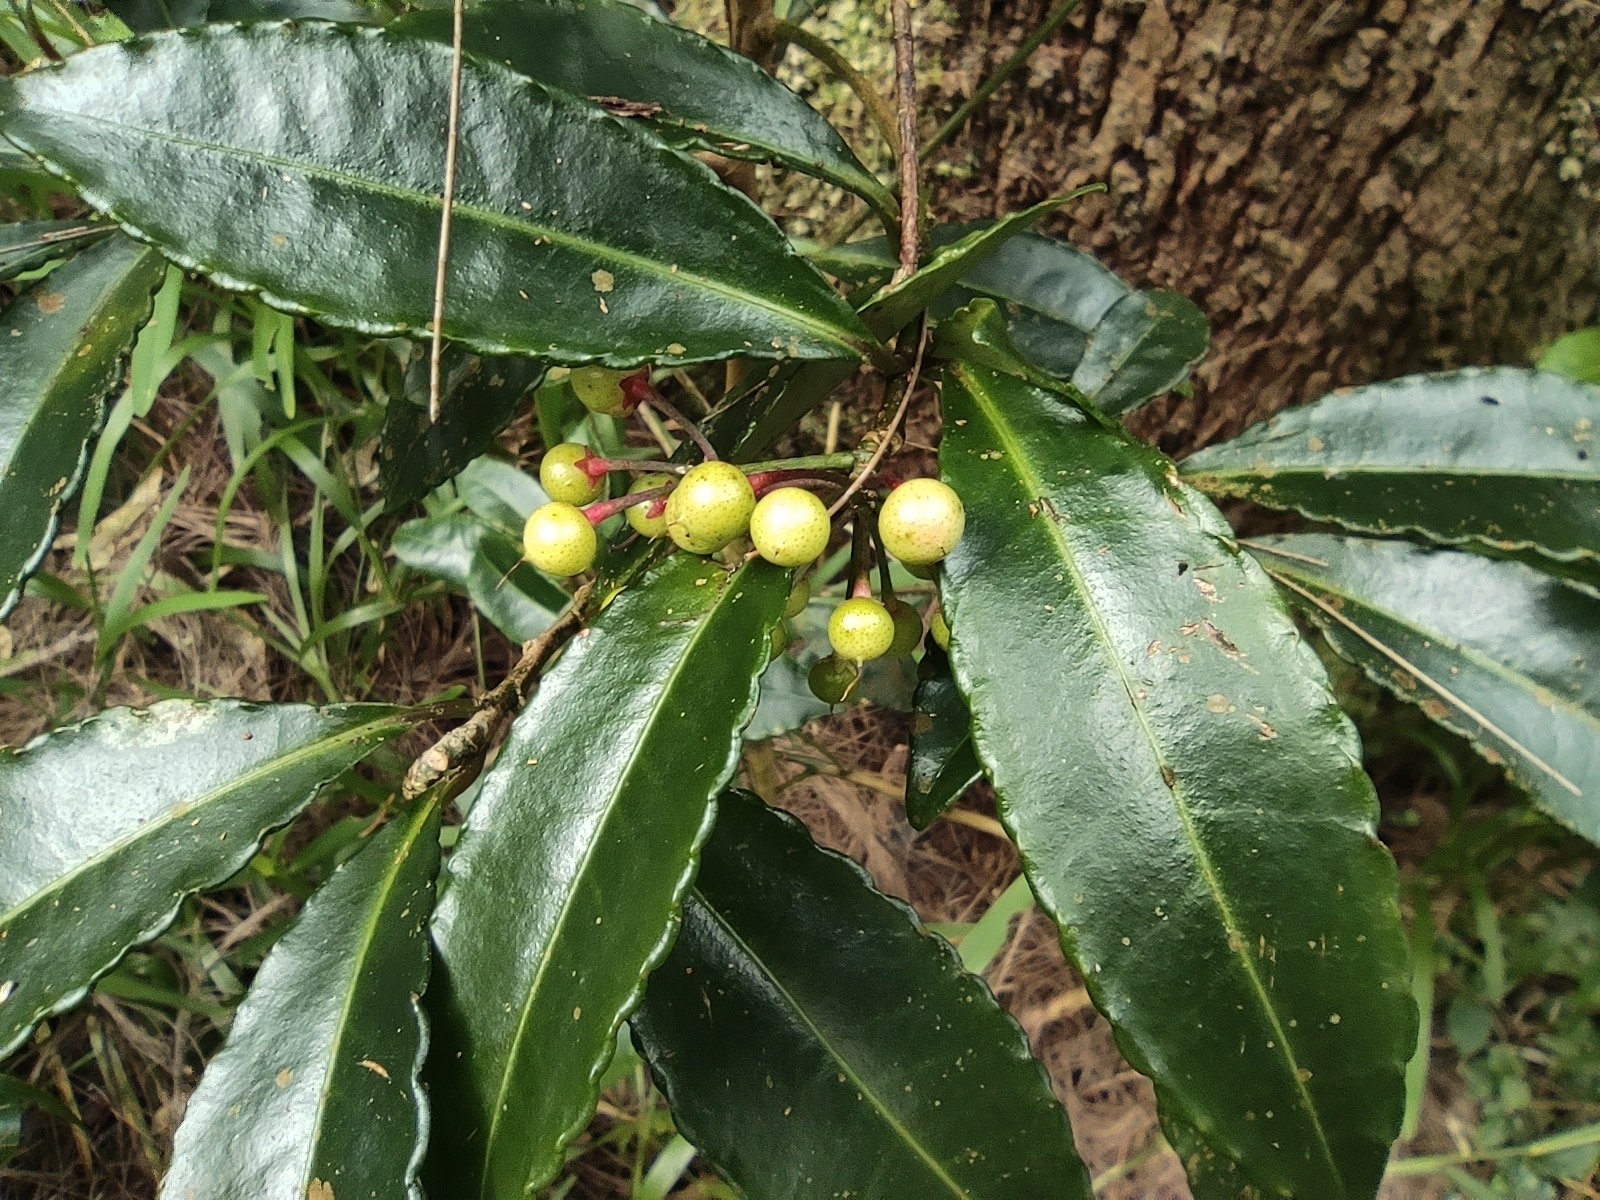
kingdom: Plantae
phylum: Tracheophyta
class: Magnoliopsida
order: Ericales
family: Primulaceae
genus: Ardisia
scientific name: Ardisia crenata
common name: Hen's eyes
